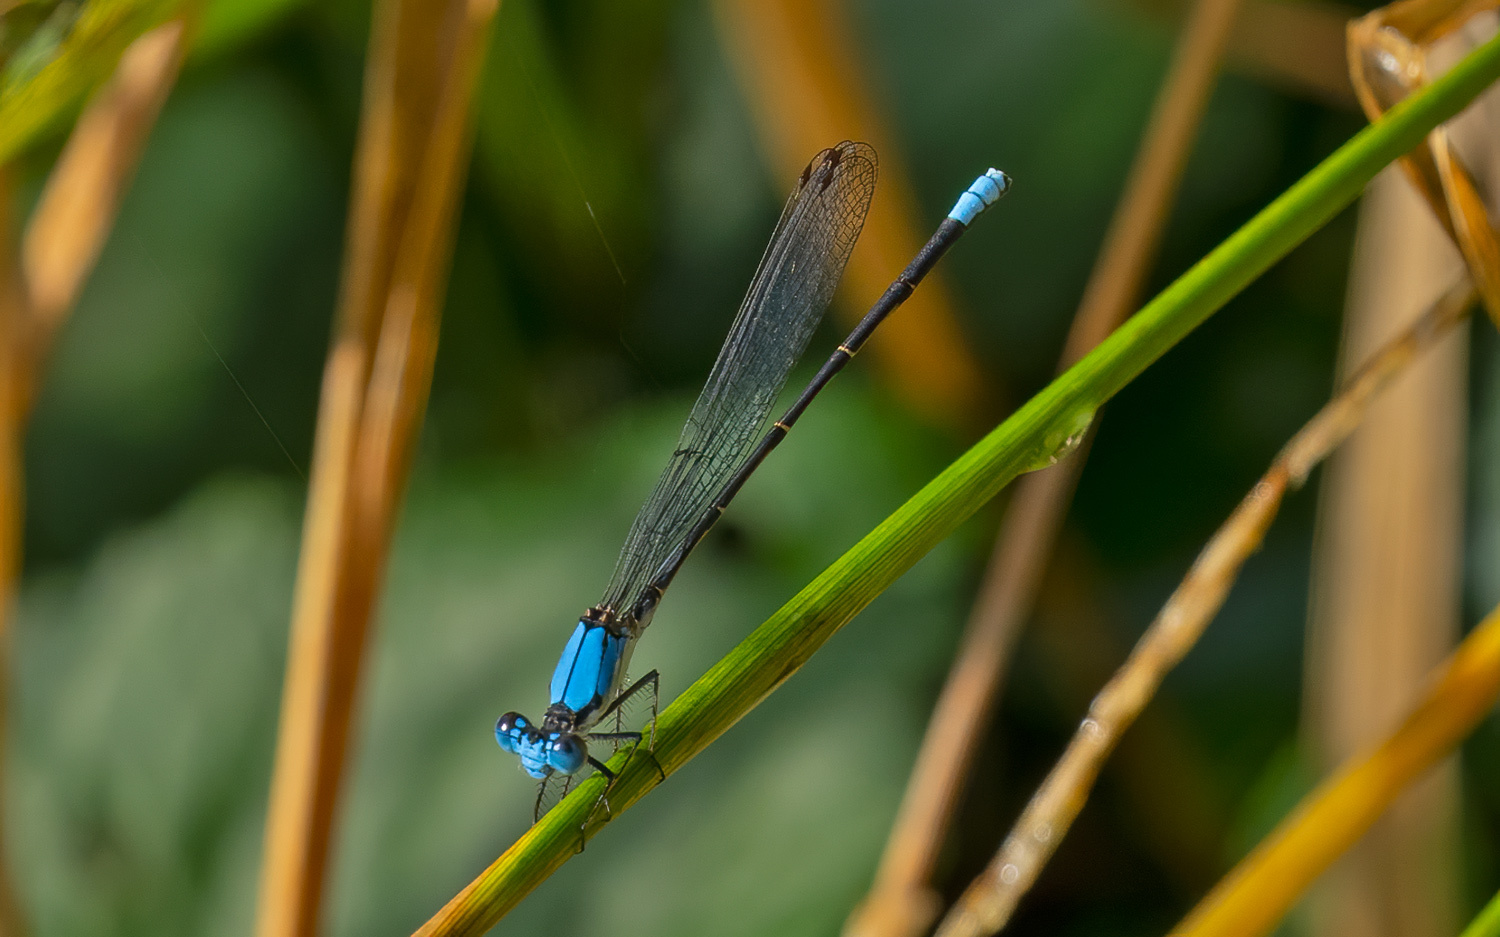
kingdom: Animalia
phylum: Arthropoda
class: Insecta
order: Odonata
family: Coenagrionidae
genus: Argia
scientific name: Argia apicalis
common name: Blue-fronted dancer
